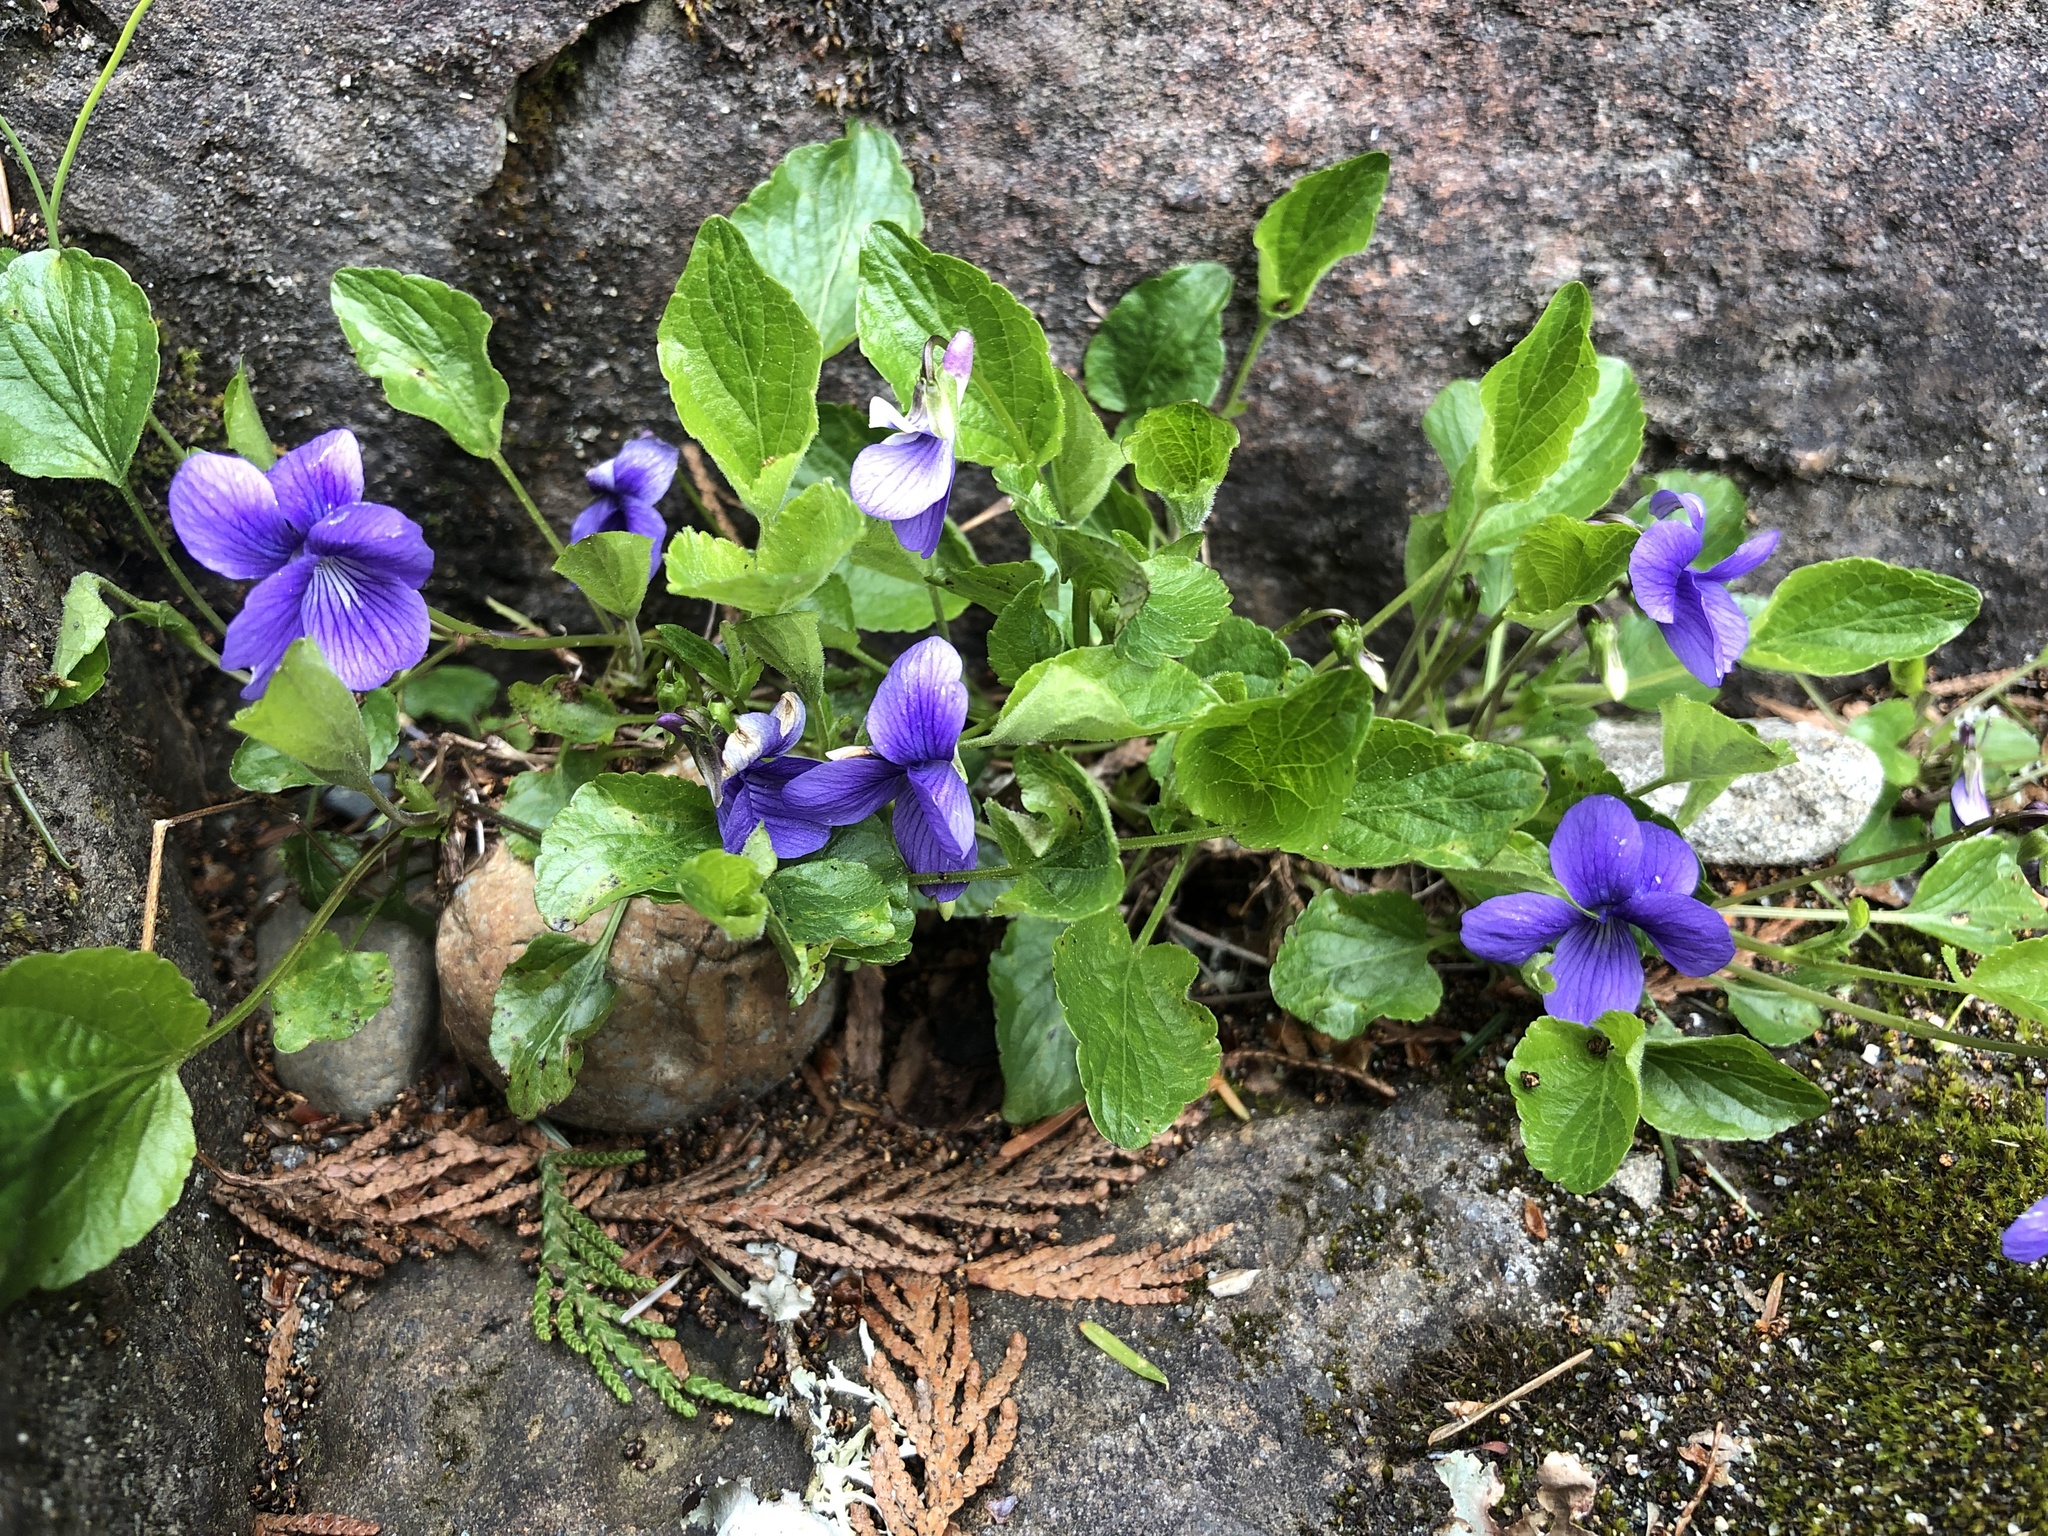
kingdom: Plantae
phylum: Tracheophyta
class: Magnoliopsida
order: Malpighiales
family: Violaceae
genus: Viola
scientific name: Viola adunca
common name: Sand violet
